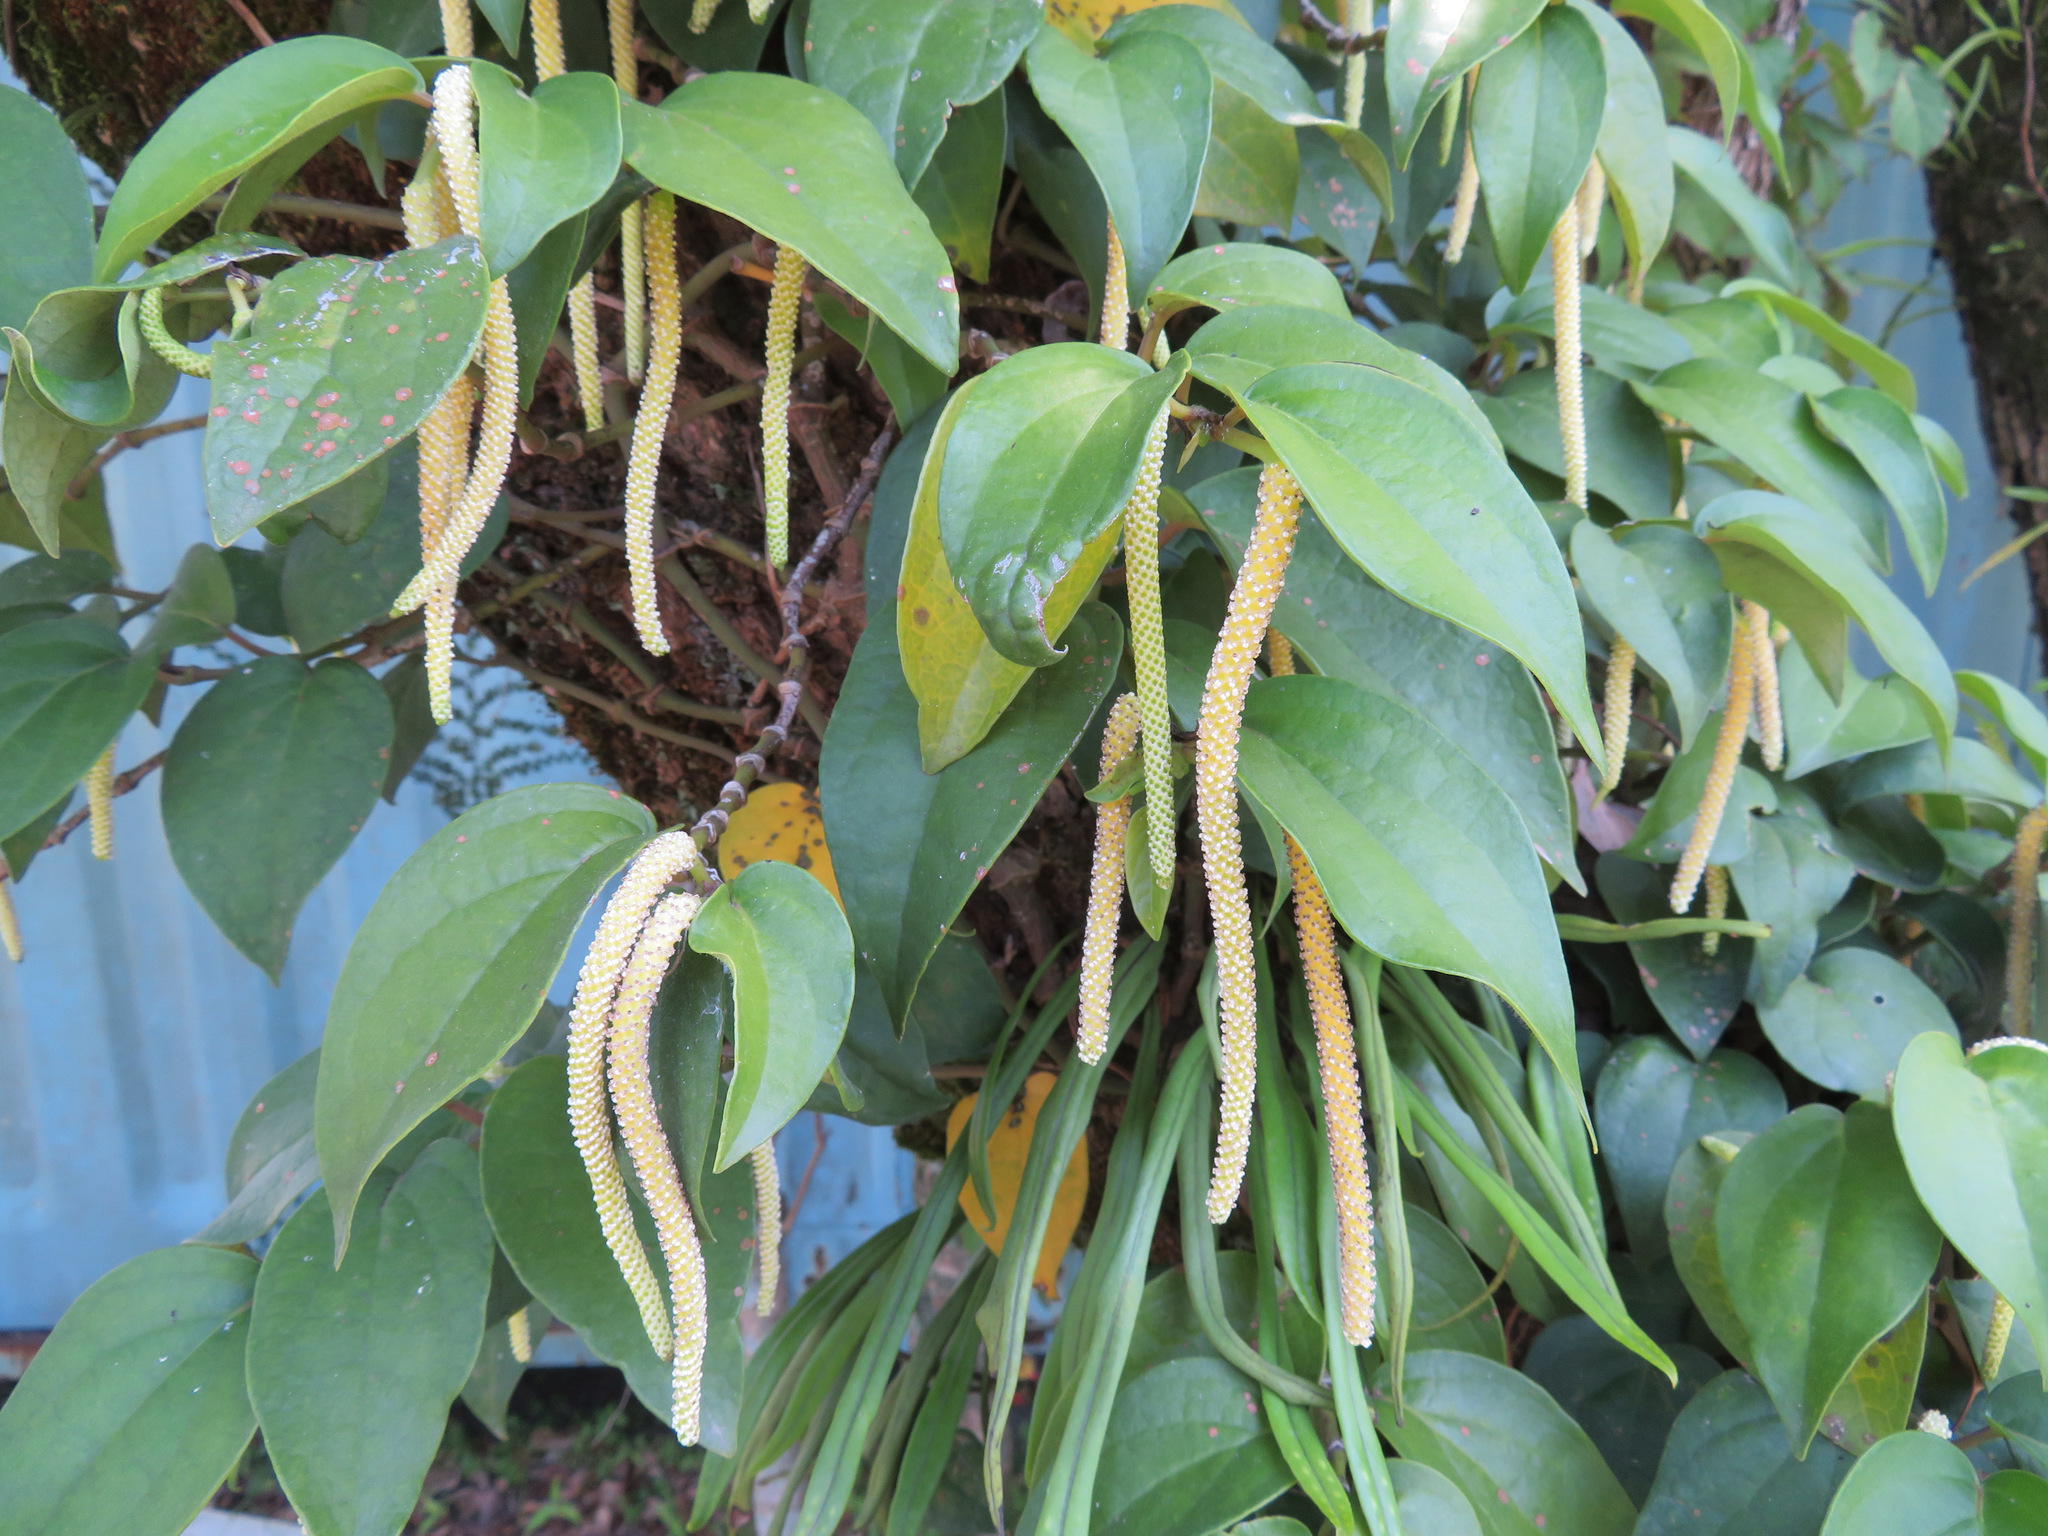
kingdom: Plantae
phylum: Tracheophyta
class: Magnoliopsida
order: Piperales
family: Piperaceae
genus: Piper
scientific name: Piper kadsura
